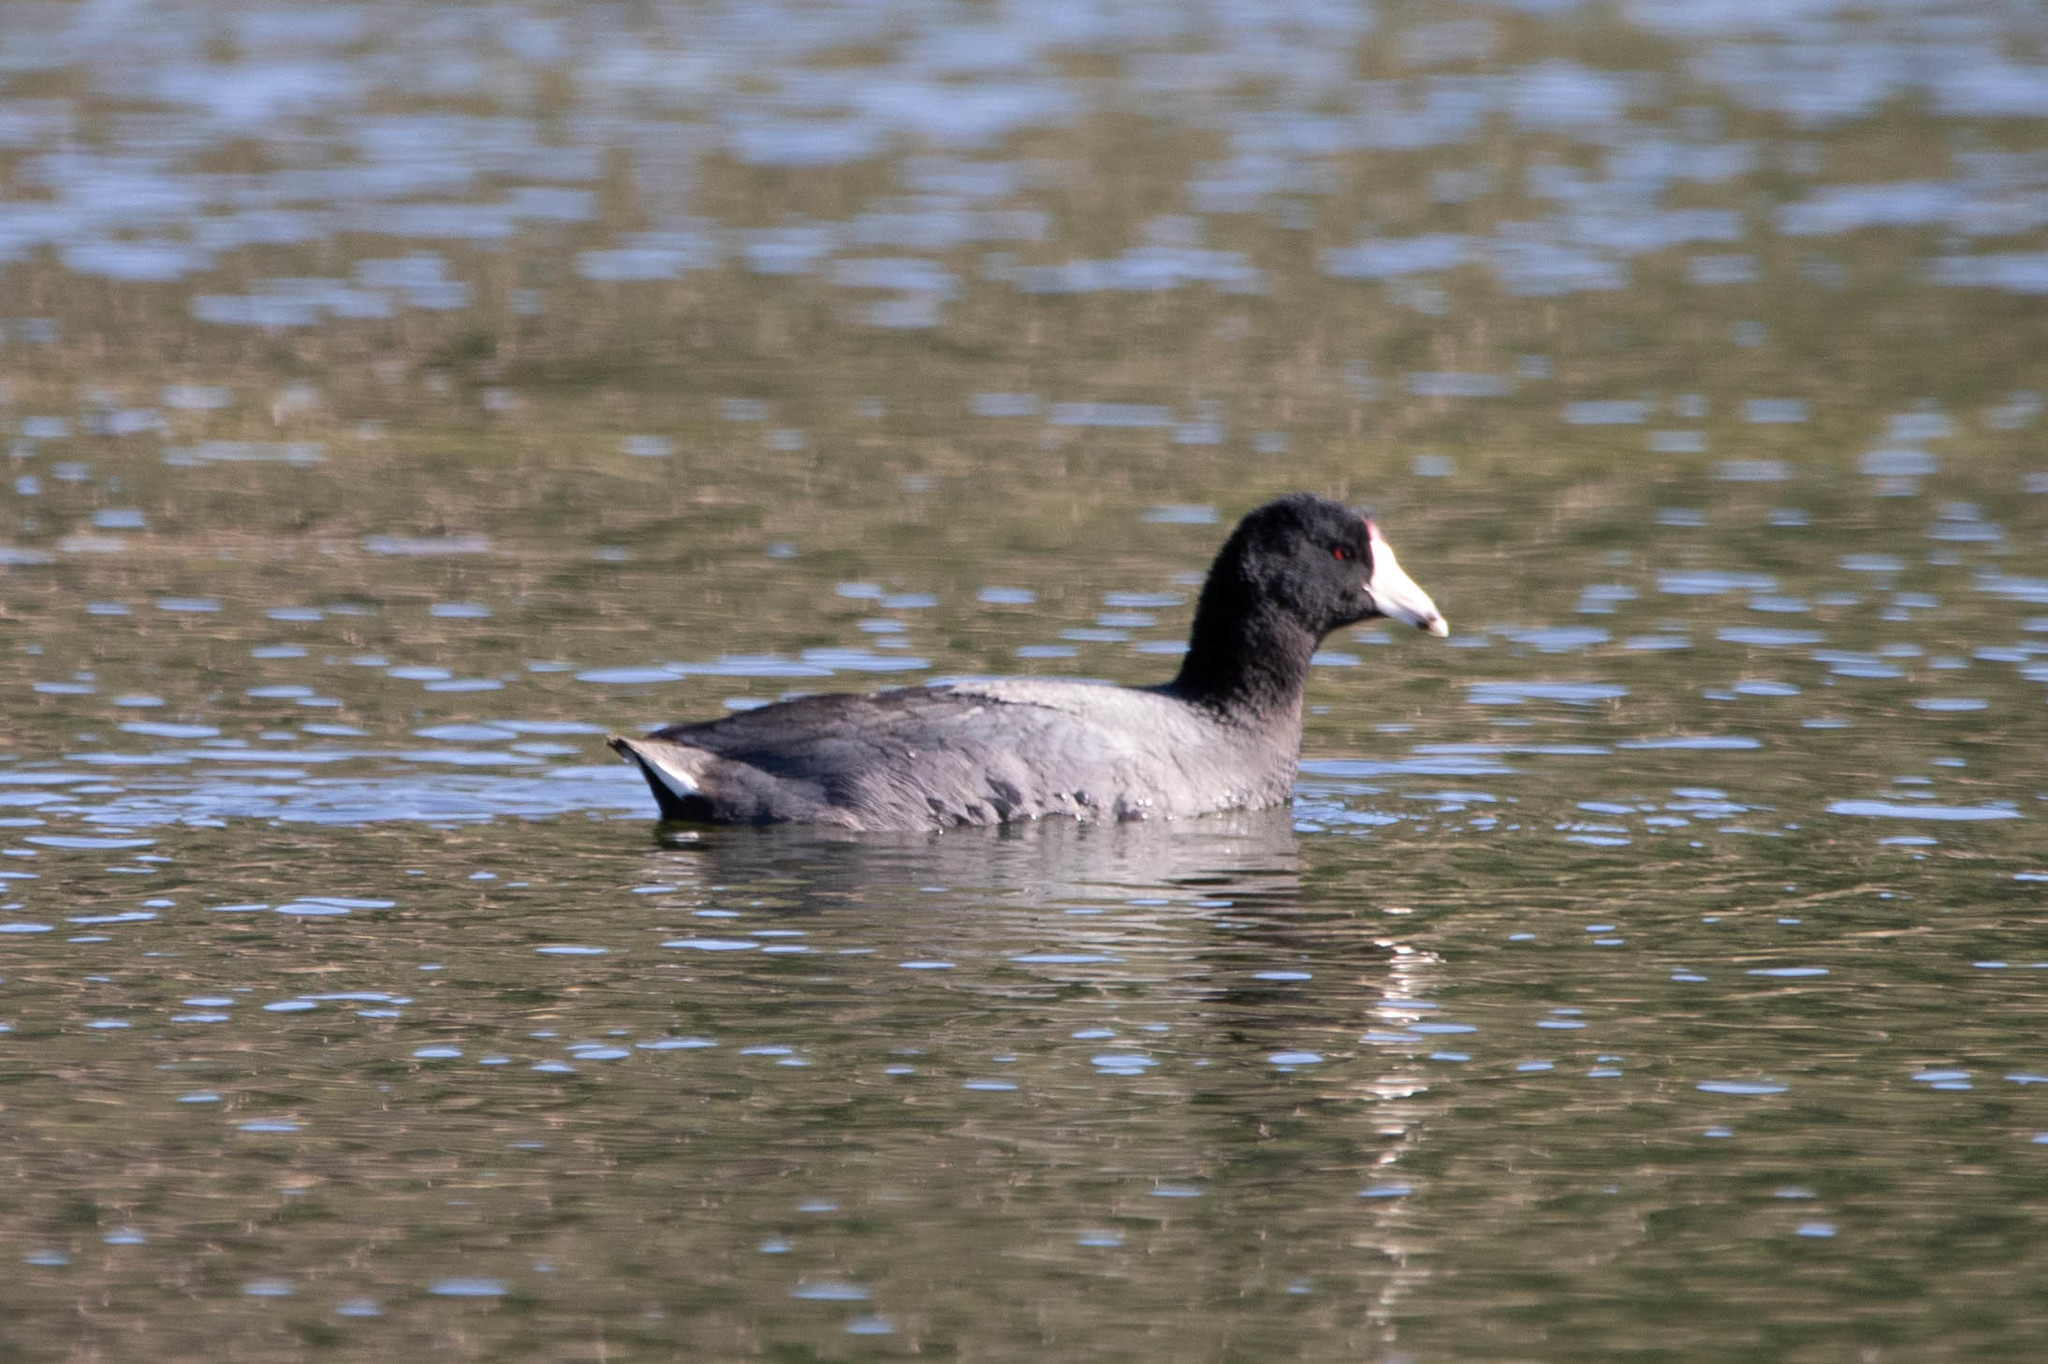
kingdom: Animalia
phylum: Chordata
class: Aves
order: Gruiformes
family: Rallidae
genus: Fulica
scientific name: Fulica americana
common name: American coot
